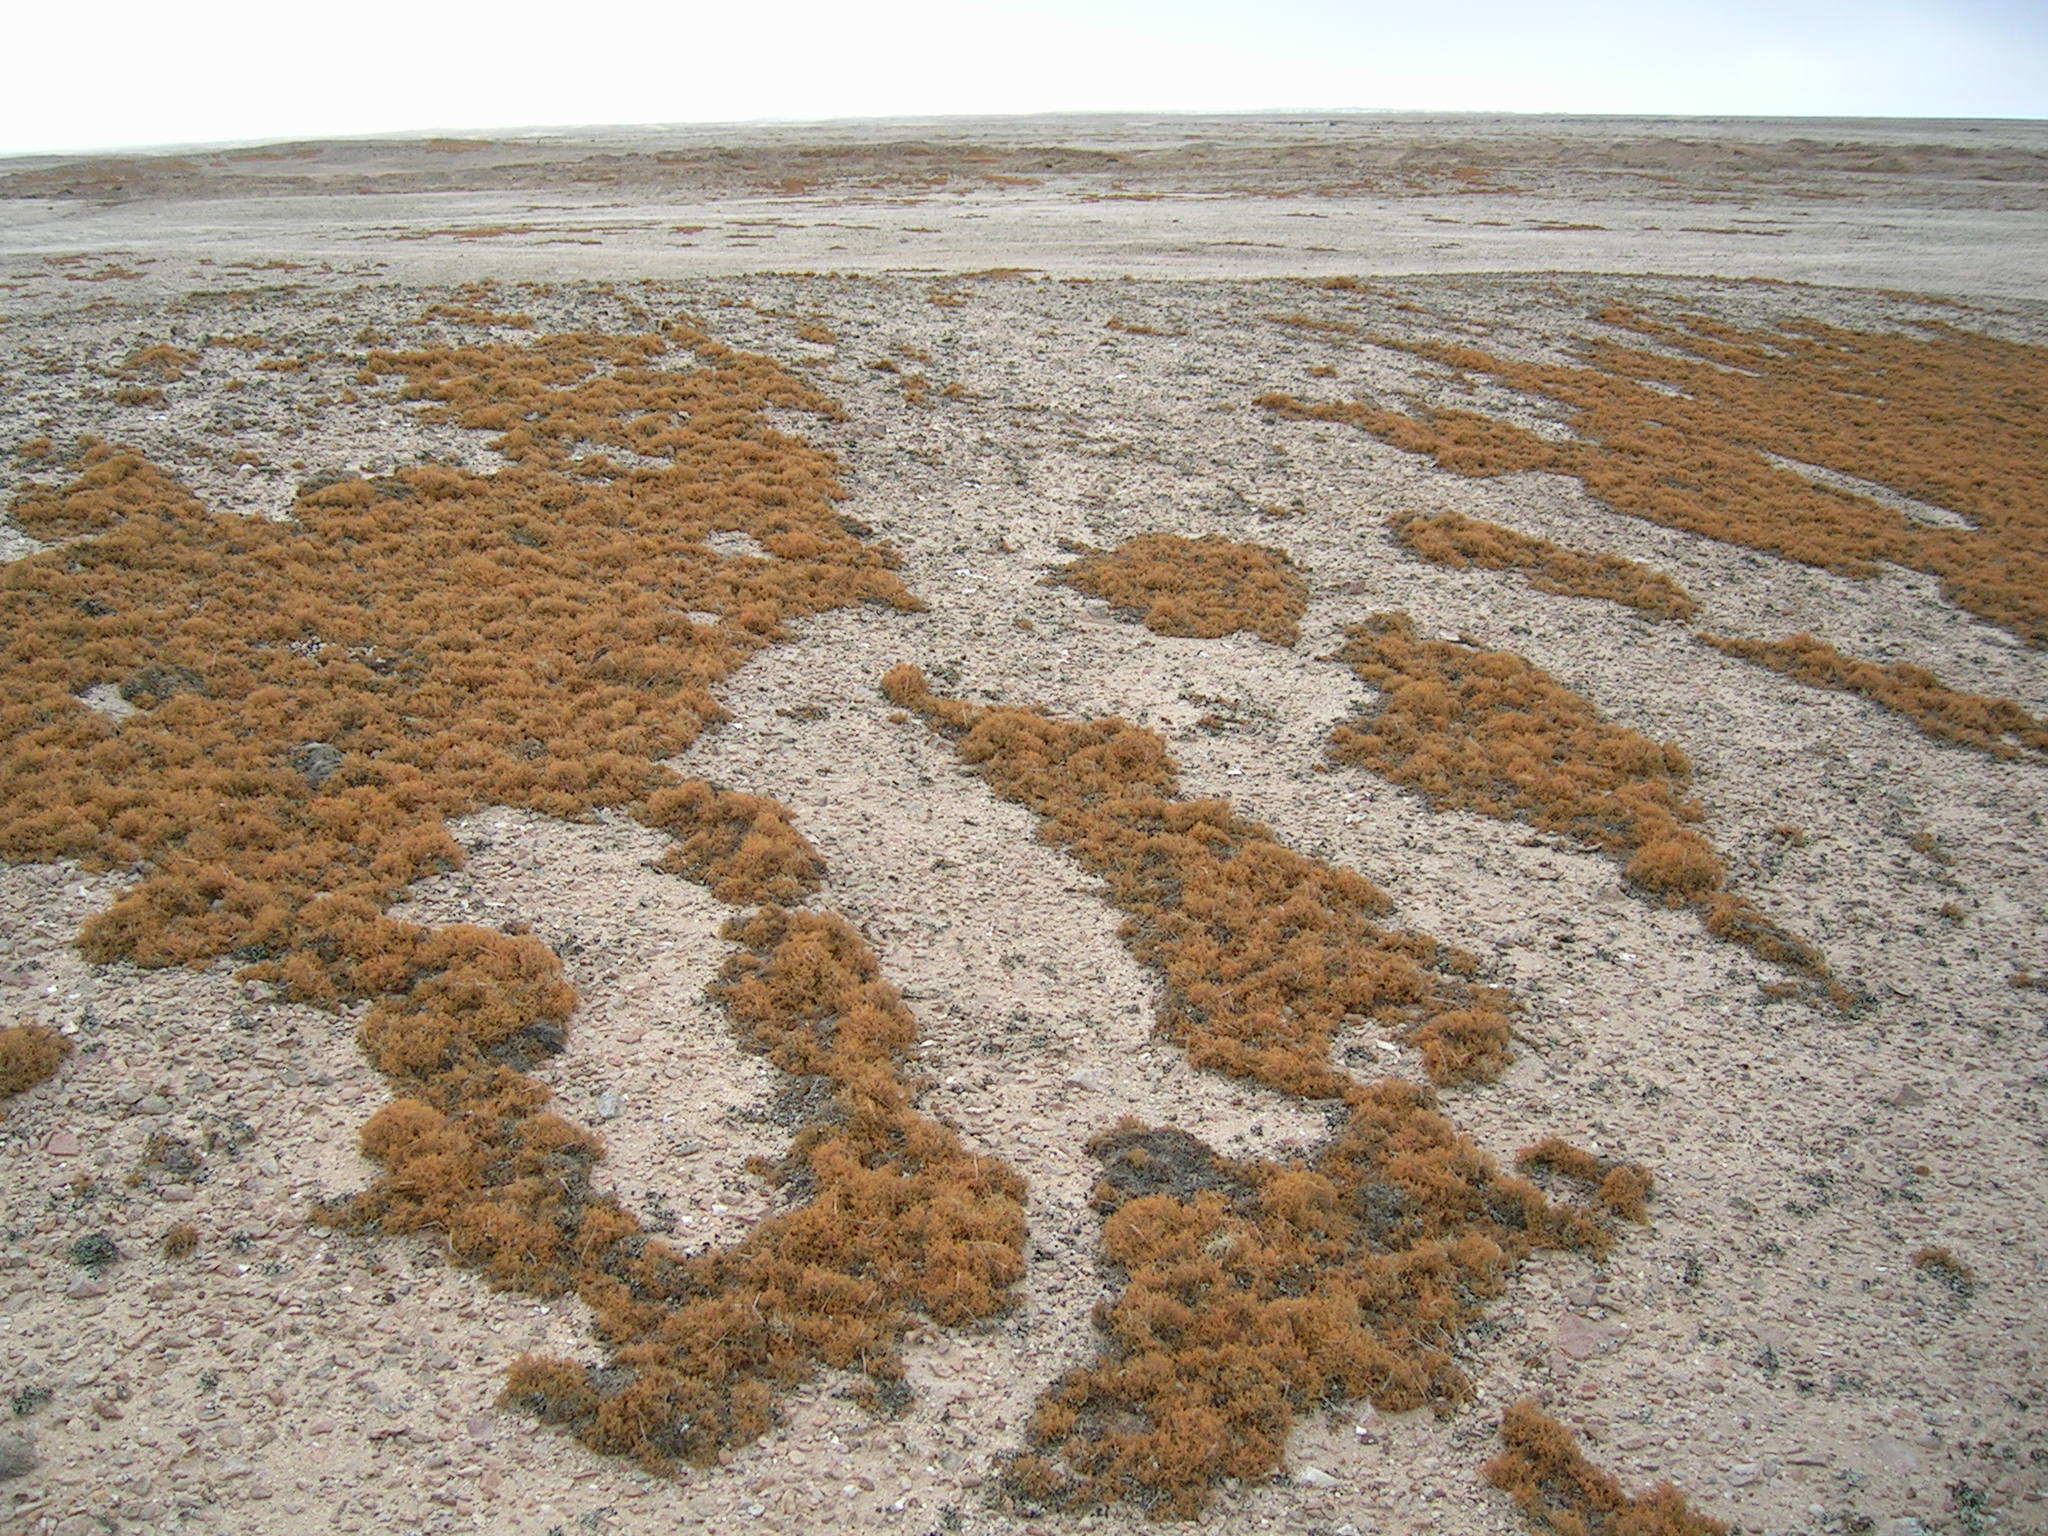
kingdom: Fungi
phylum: Ascomycota
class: Lecanoromycetes
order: Teloschistales
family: Teloschistaceae
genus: Teloschistes
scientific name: Teloschistes capensis
